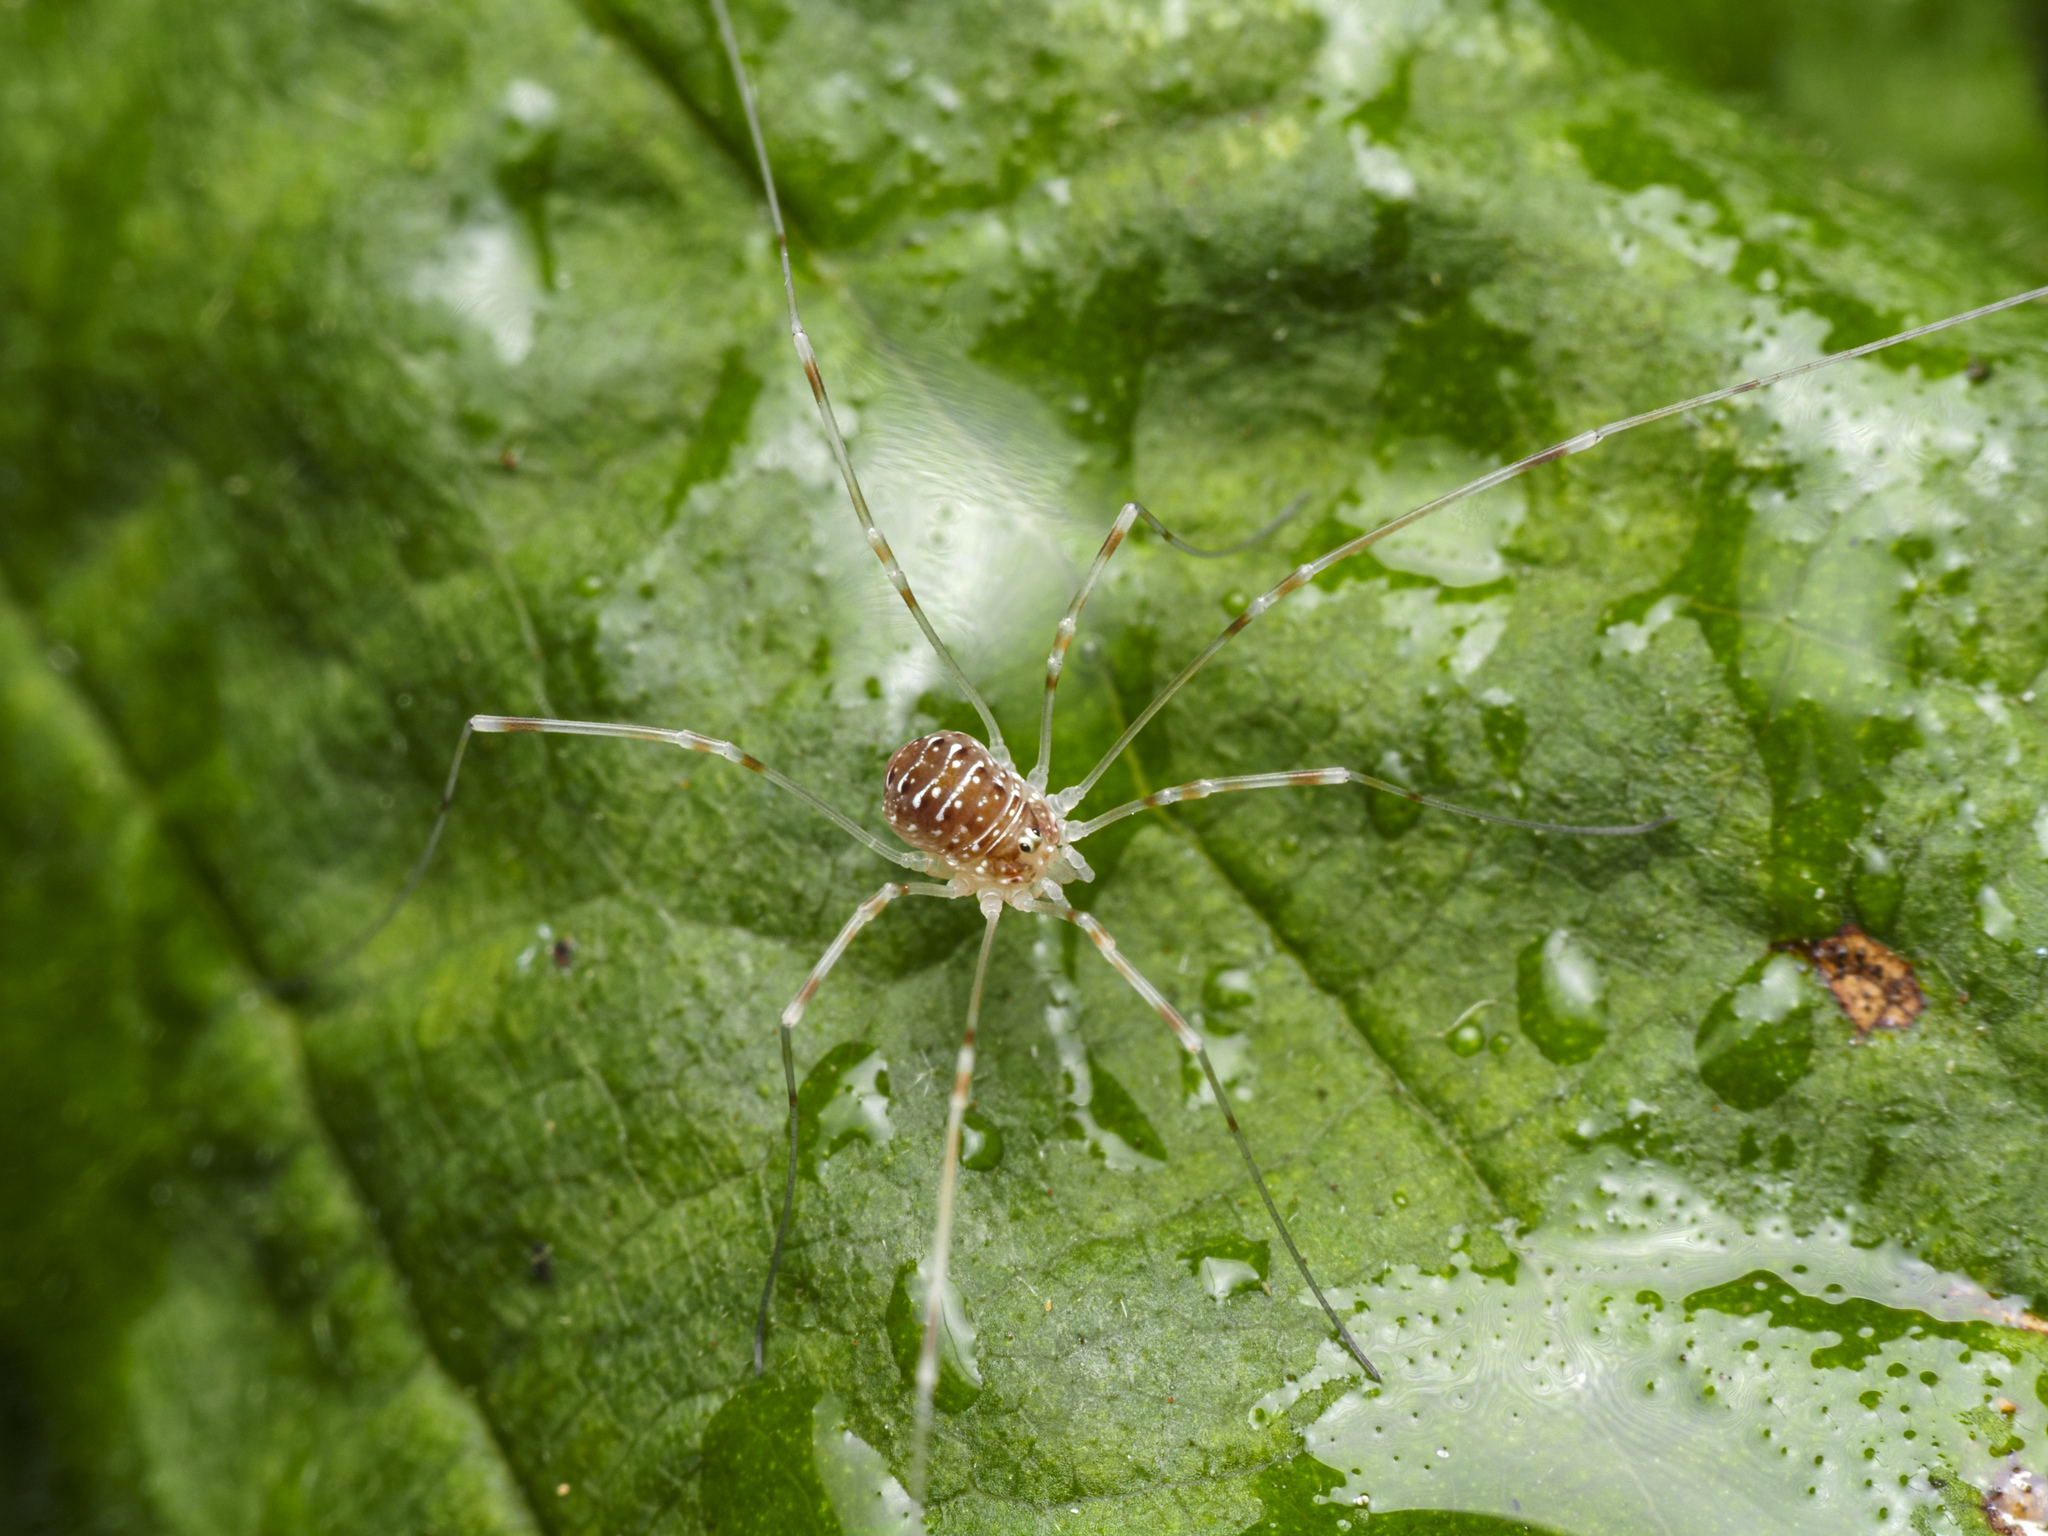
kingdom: Animalia
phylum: Arthropoda
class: Arachnida
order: Opiliones
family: Phalangiidae
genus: Opilio
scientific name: Opilio canestrinii
